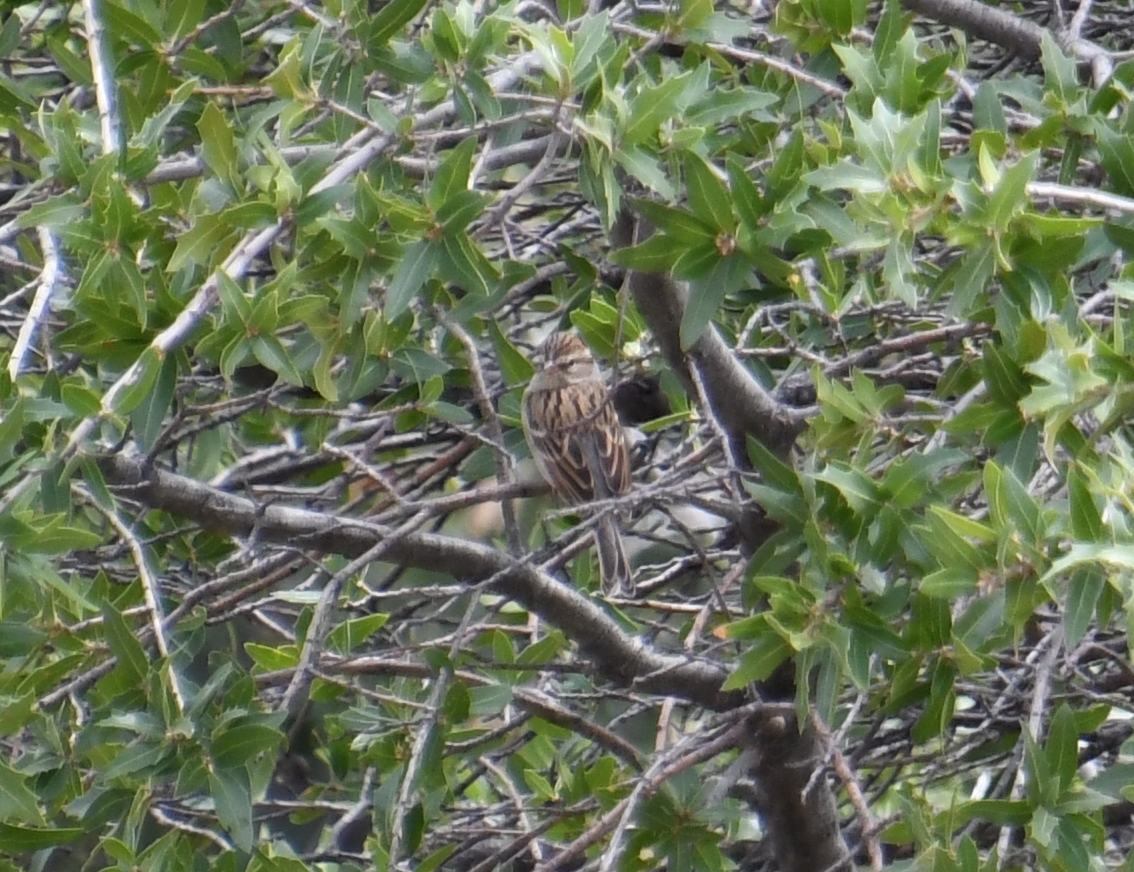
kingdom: Animalia
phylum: Chordata
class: Aves
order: Passeriformes
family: Passerellidae
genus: Spizella
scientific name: Spizella passerina
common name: Chipping sparrow
